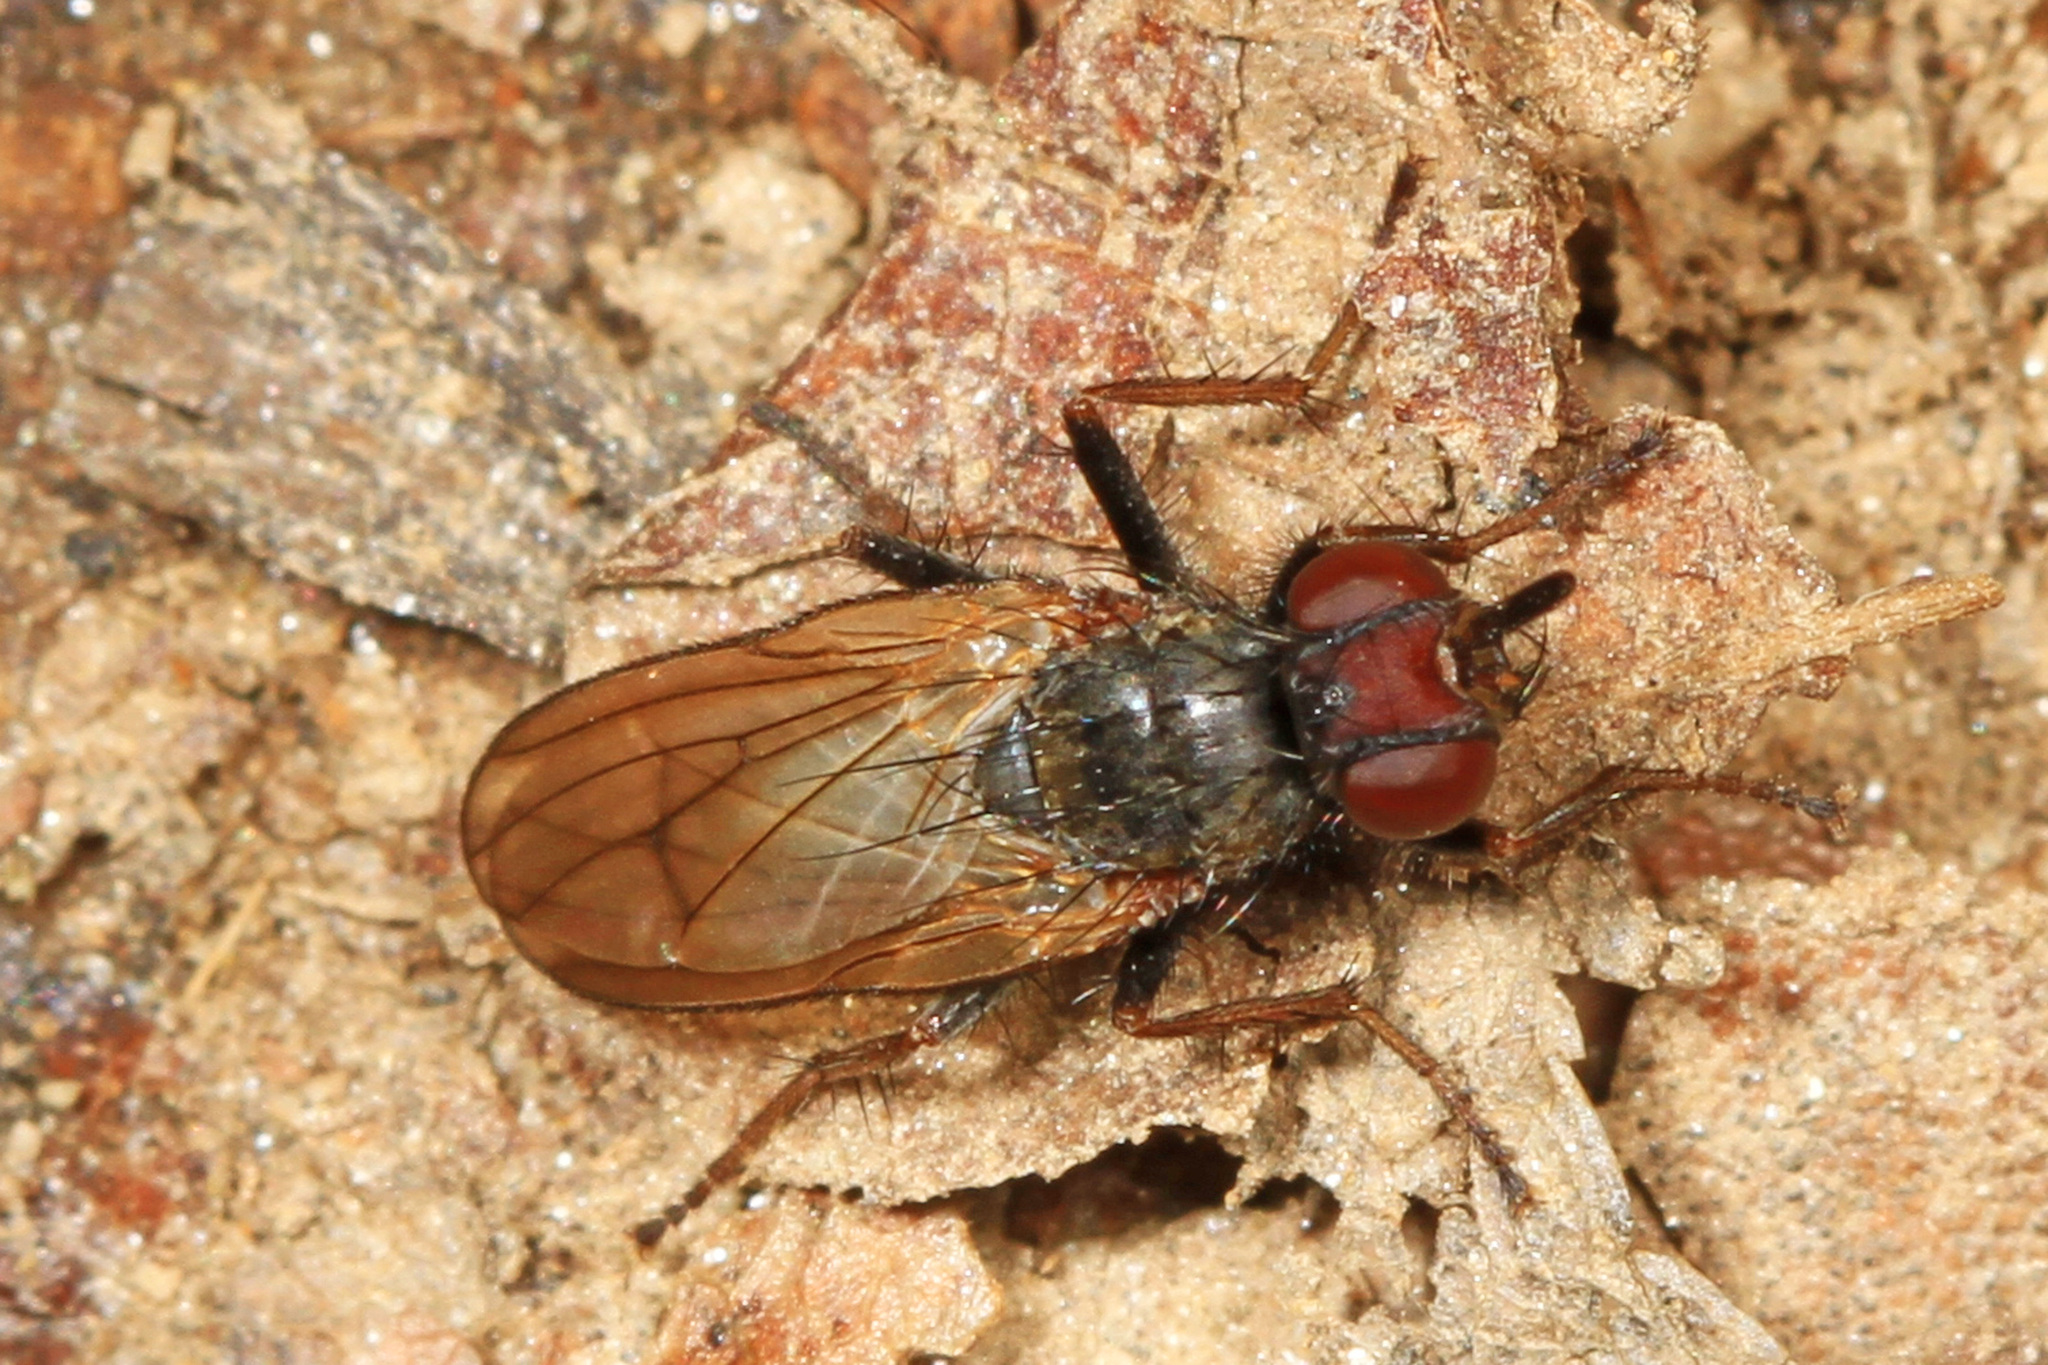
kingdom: Animalia
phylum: Arthropoda
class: Insecta
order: Diptera
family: Scathophagidae
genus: Bucephalina
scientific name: Bucephalina megacephala
